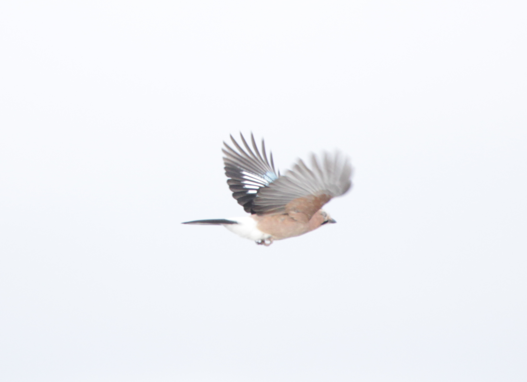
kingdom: Animalia
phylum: Chordata
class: Aves
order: Passeriformes
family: Corvidae
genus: Garrulus
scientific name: Garrulus glandarius
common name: Eurasian jay
